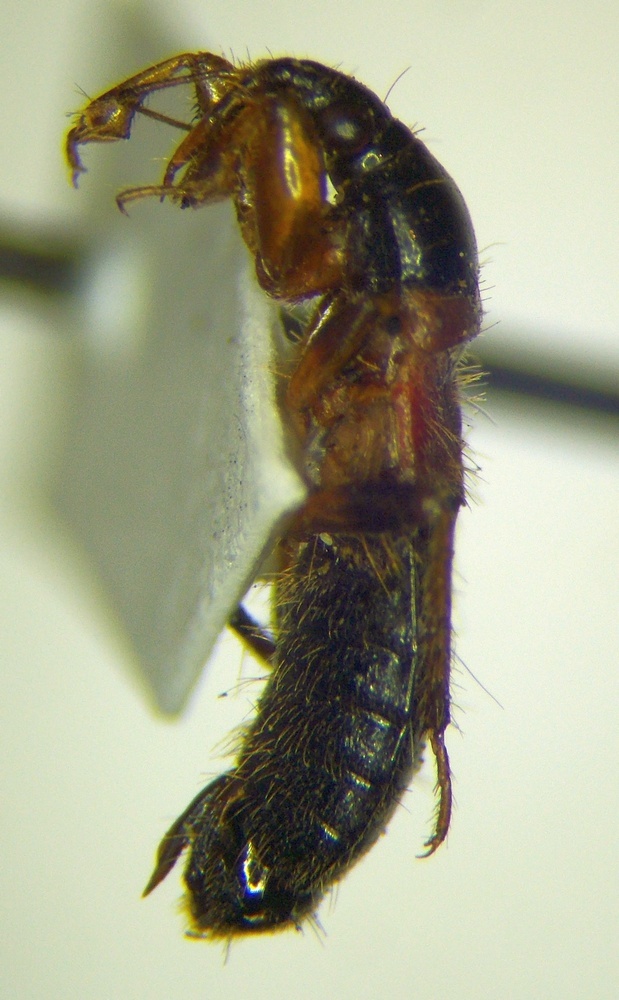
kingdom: Animalia
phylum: Arthropoda
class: Insecta
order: Hemiptera
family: Nabidae
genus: Prostemma
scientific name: Prostemma sanguineum
